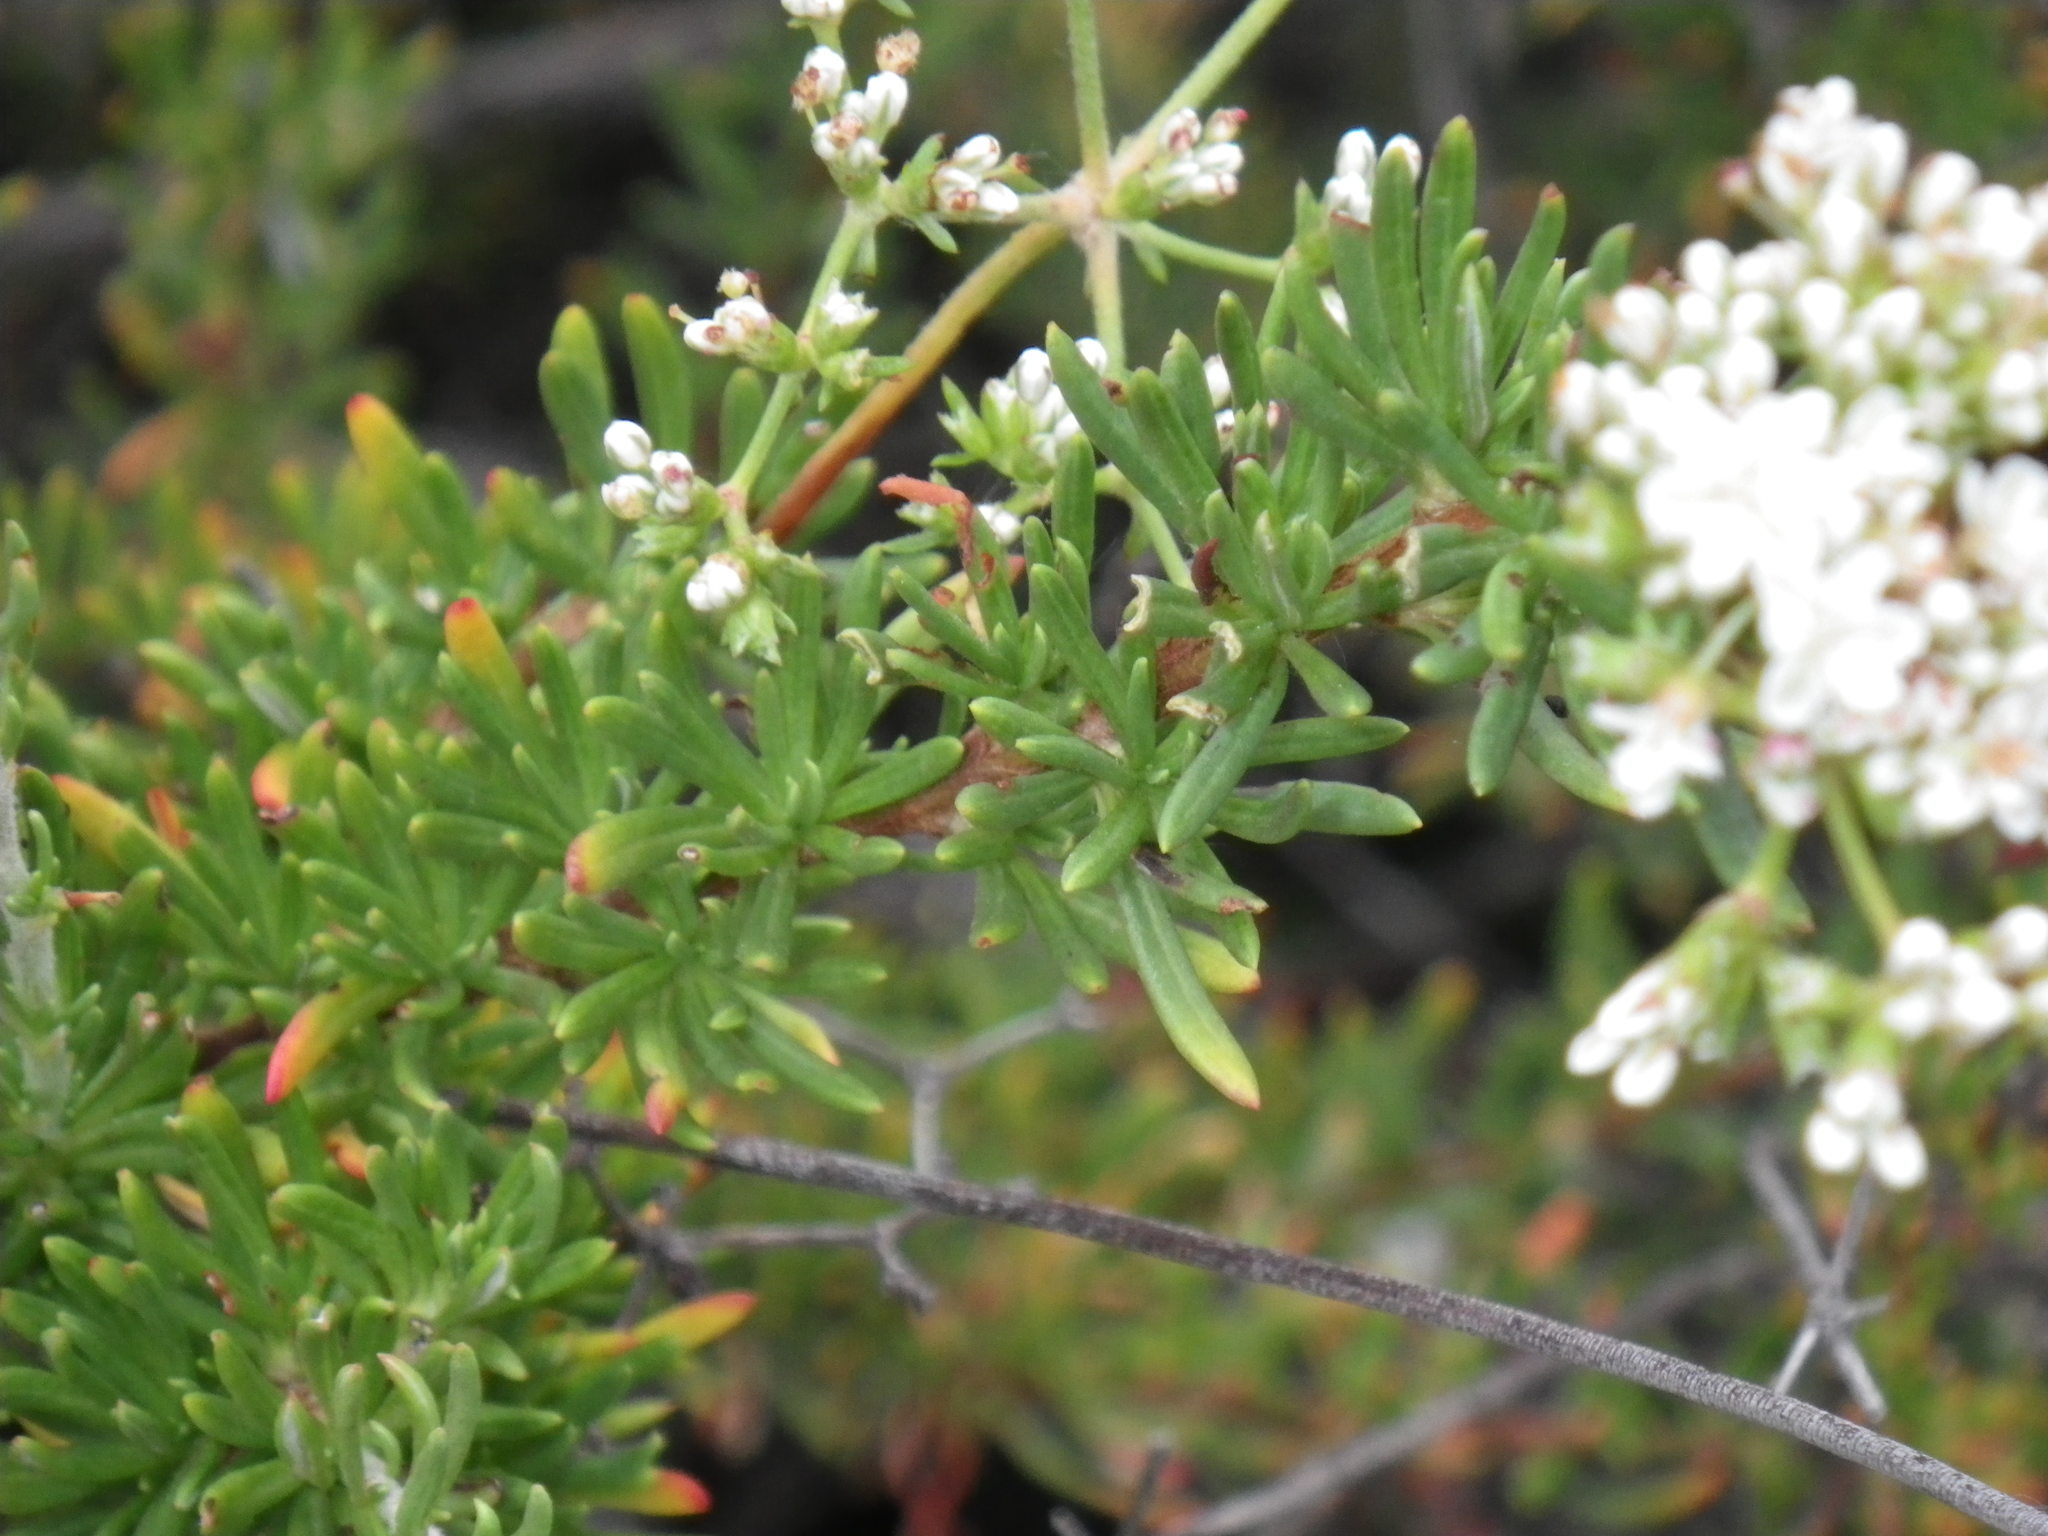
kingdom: Plantae
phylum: Tracheophyta
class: Magnoliopsida
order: Caryophyllales
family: Polygonaceae
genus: Eriogonum
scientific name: Eriogonum fasciculatum
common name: California wild buckwheat
